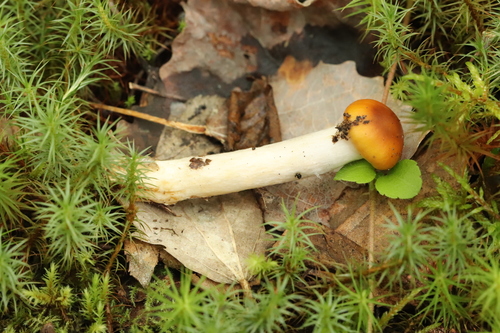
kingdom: Fungi
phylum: Basidiomycota
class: Agaricomycetes
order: Agaricales
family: Cortinariaceae
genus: Cortinarius
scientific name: Cortinarius
